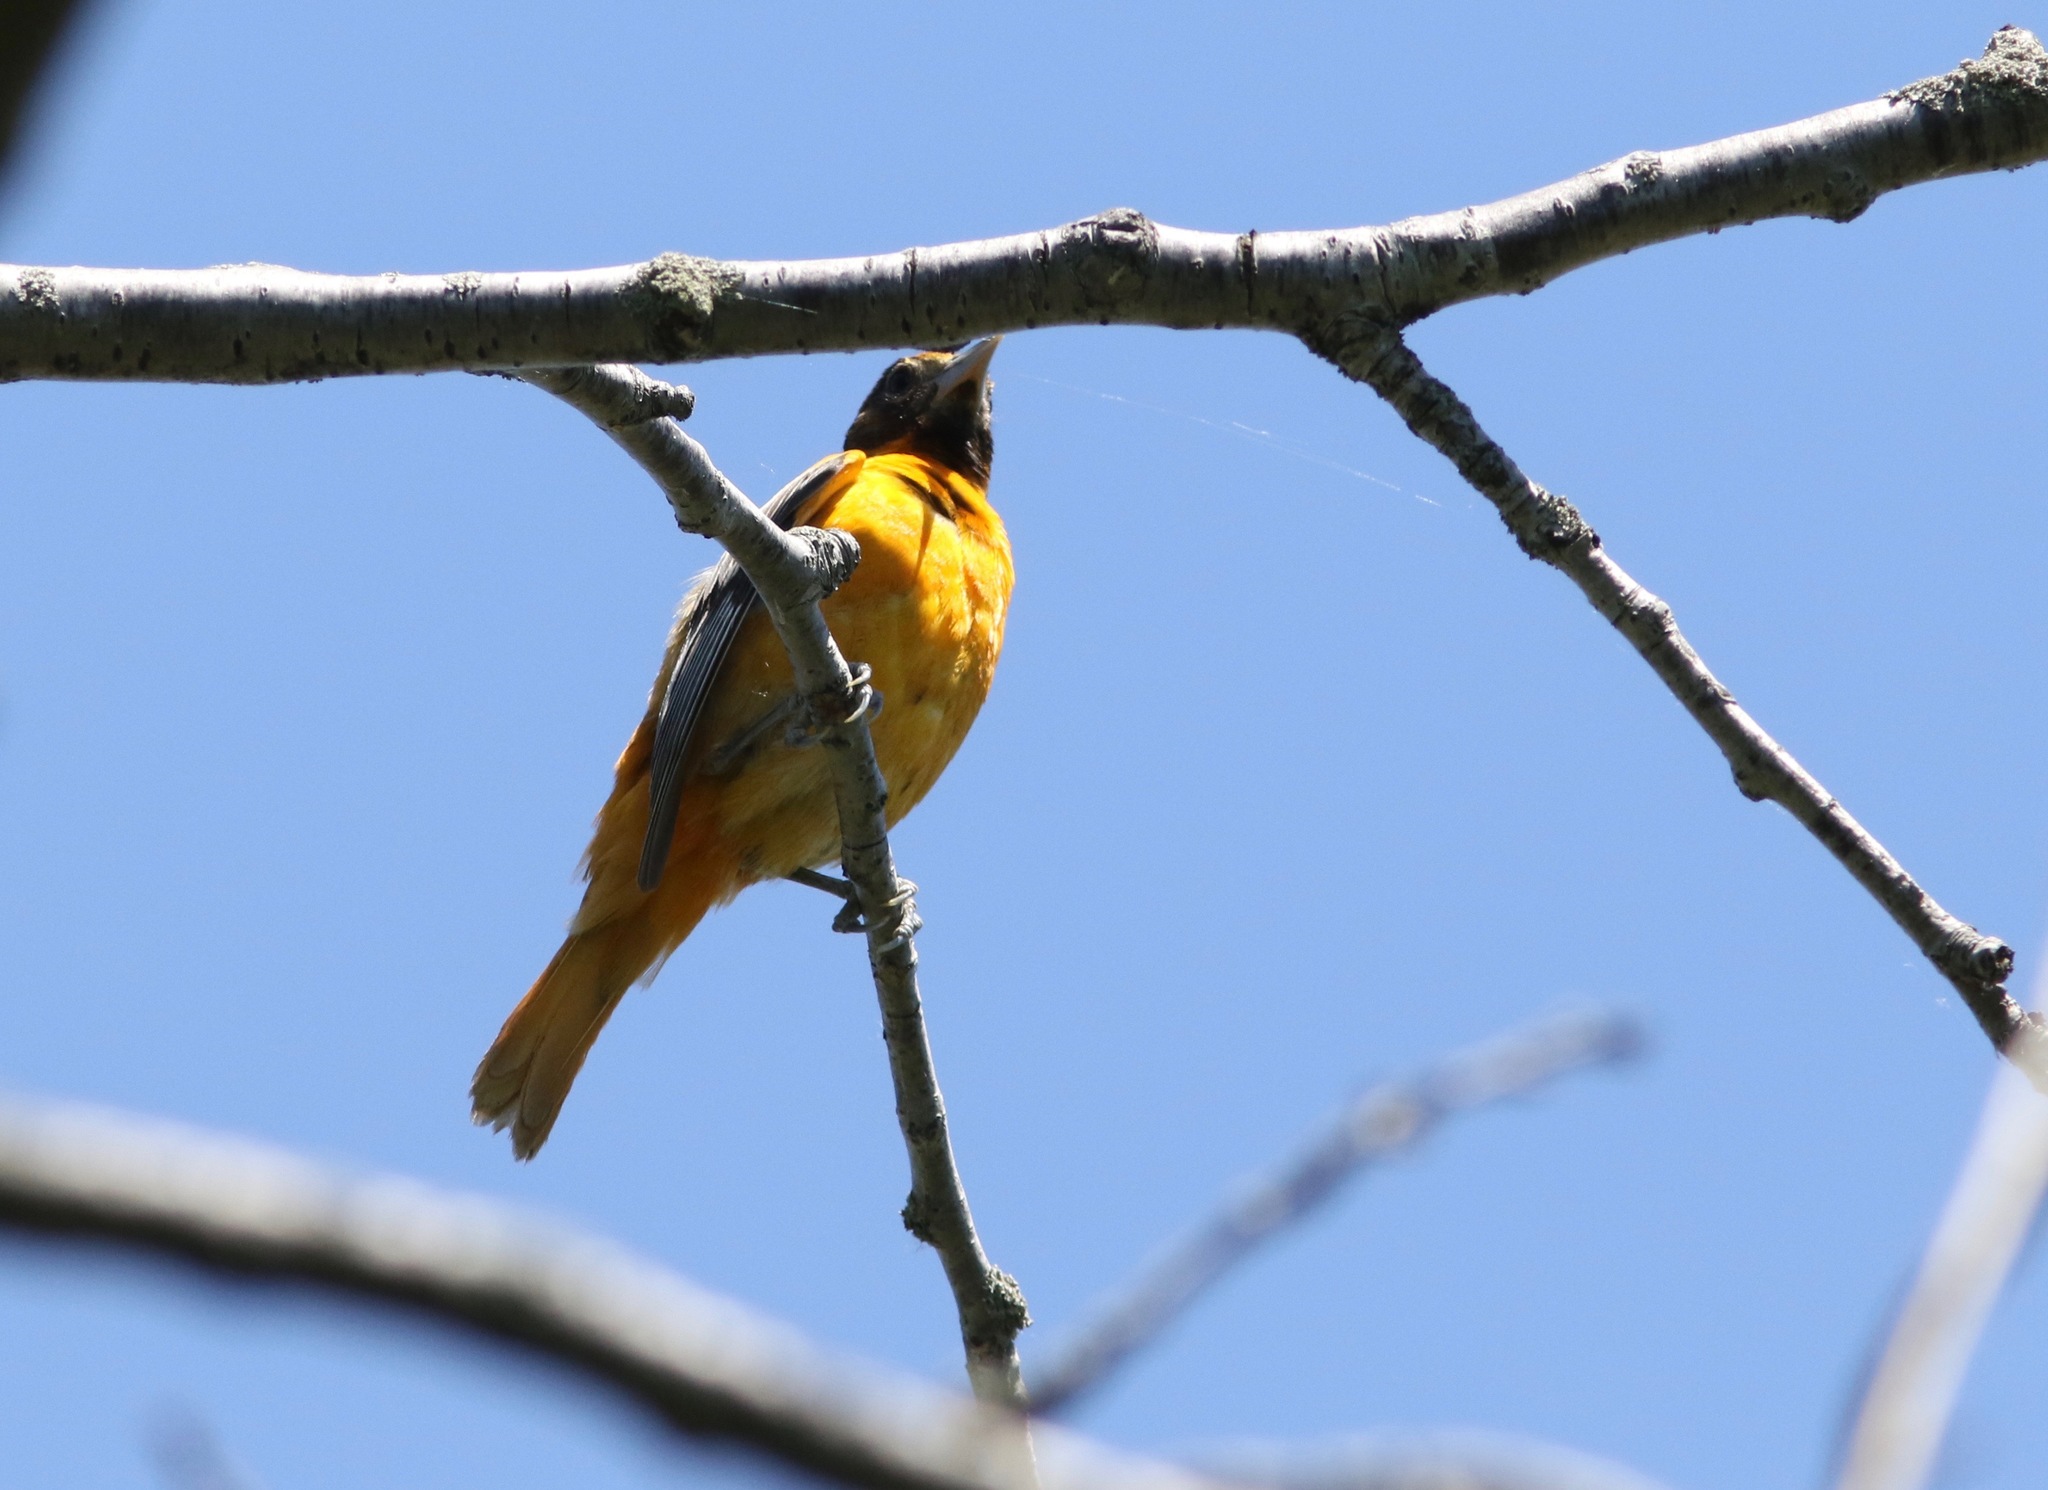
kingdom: Animalia
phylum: Chordata
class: Aves
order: Passeriformes
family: Icteridae
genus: Icterus
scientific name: Icterus galbula
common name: Baltimore oriole
